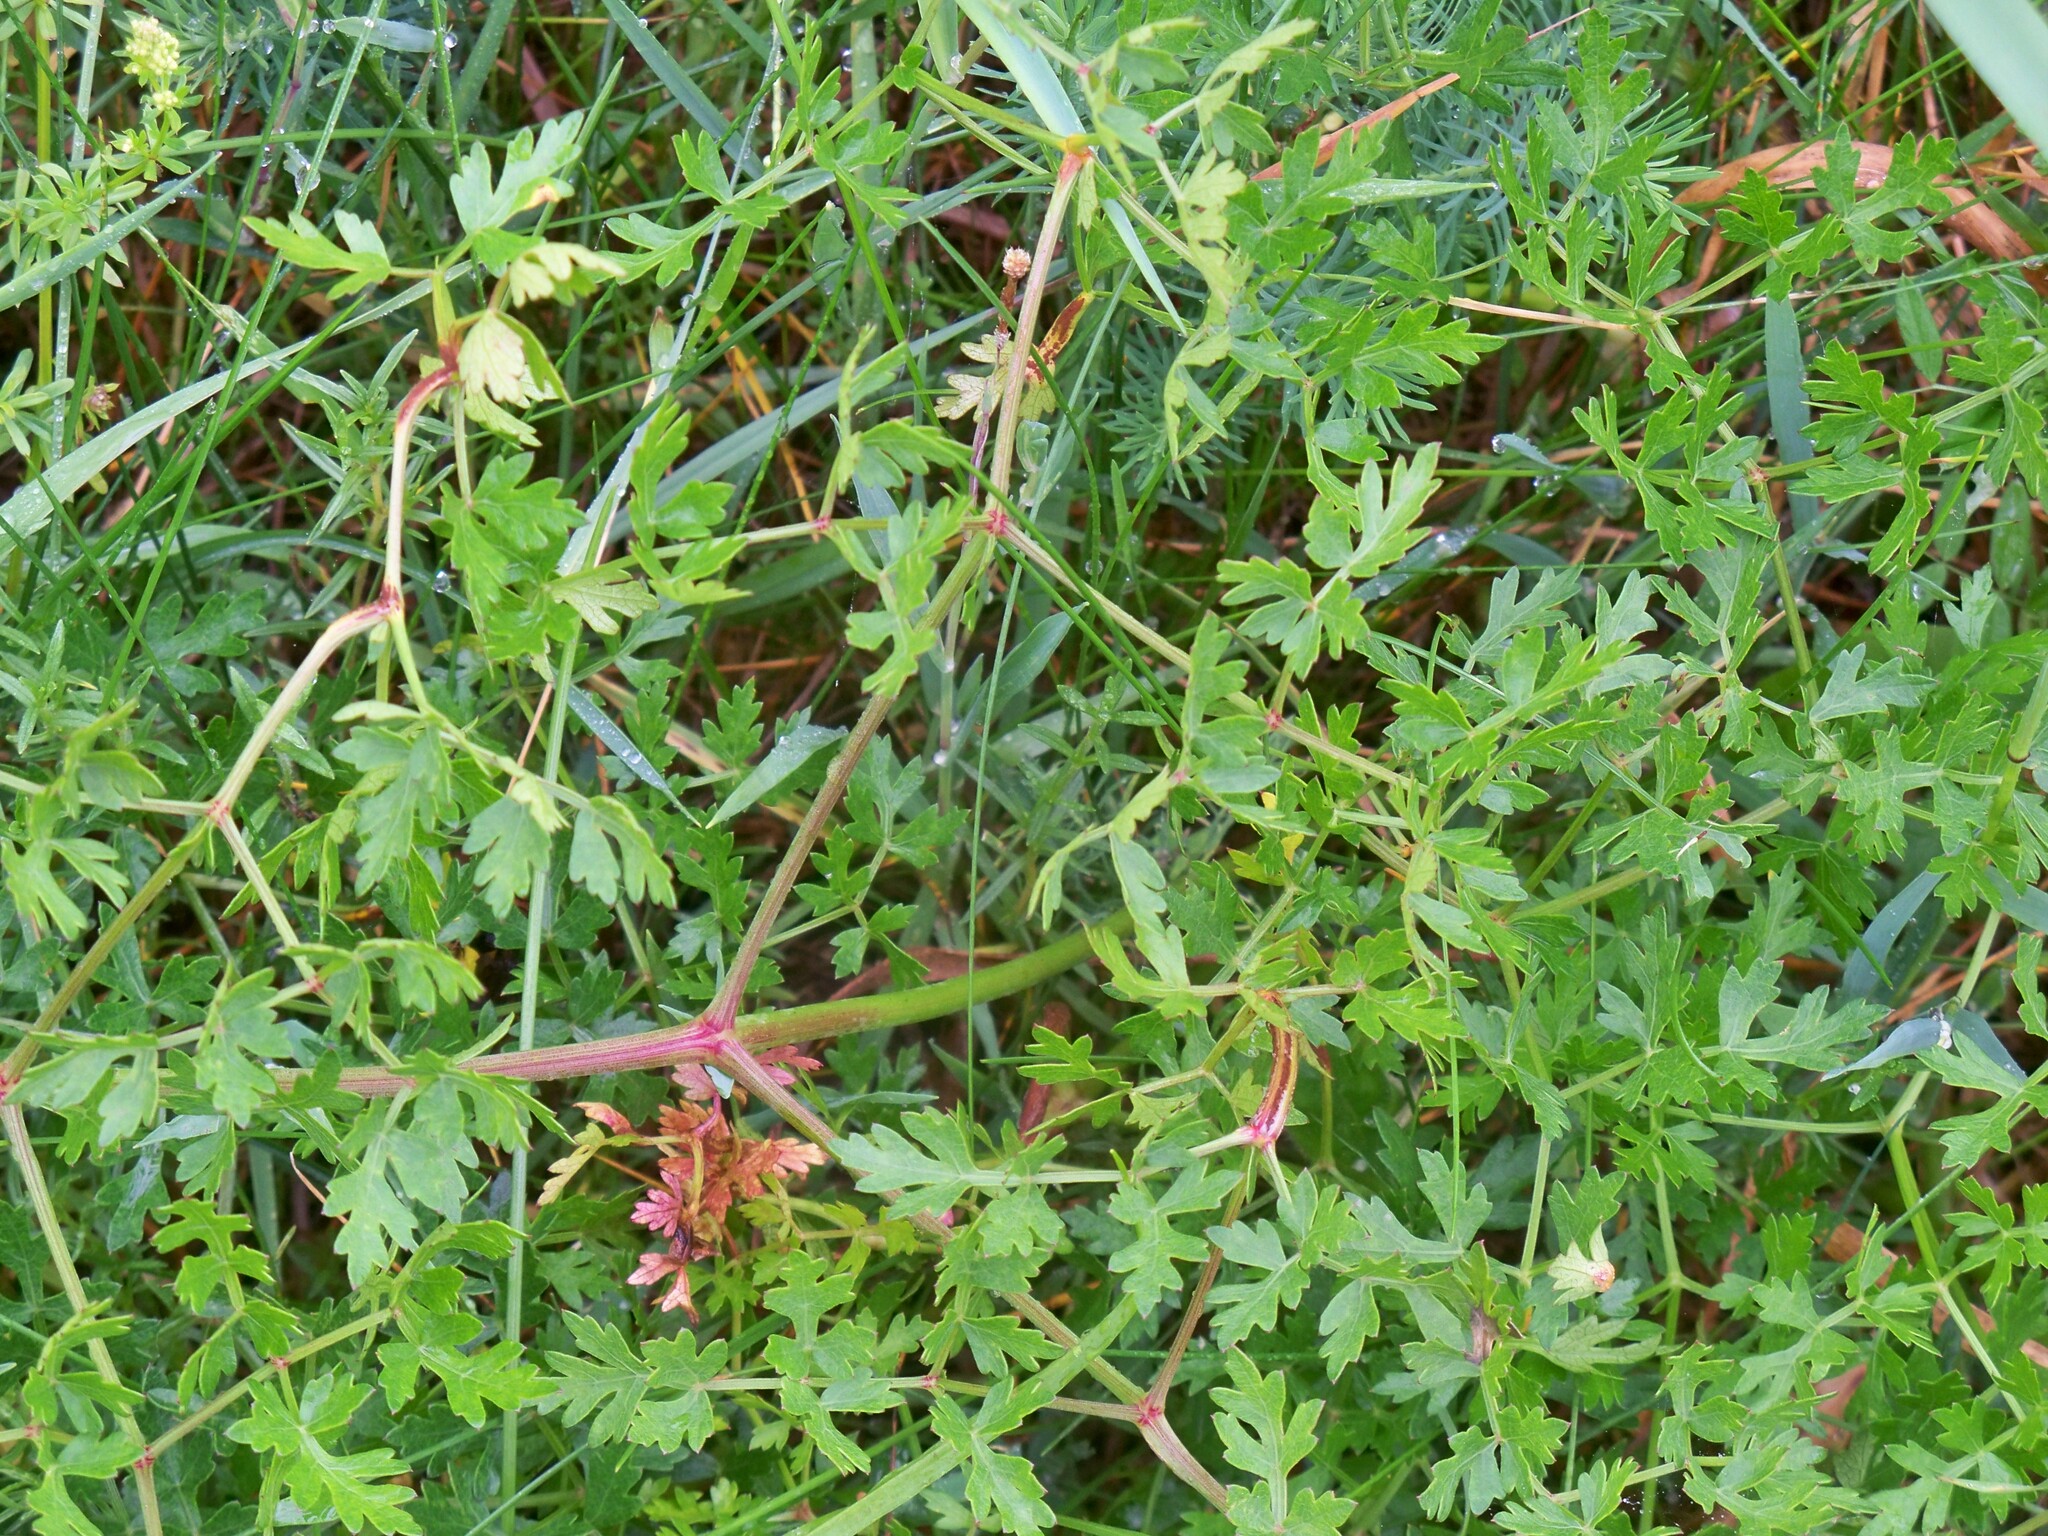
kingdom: Plantae
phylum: Tracheophyta
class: Magnoliopsida
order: Apiales
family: Apiaceae
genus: Oreoselinum
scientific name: Oreoselinum nigrum
